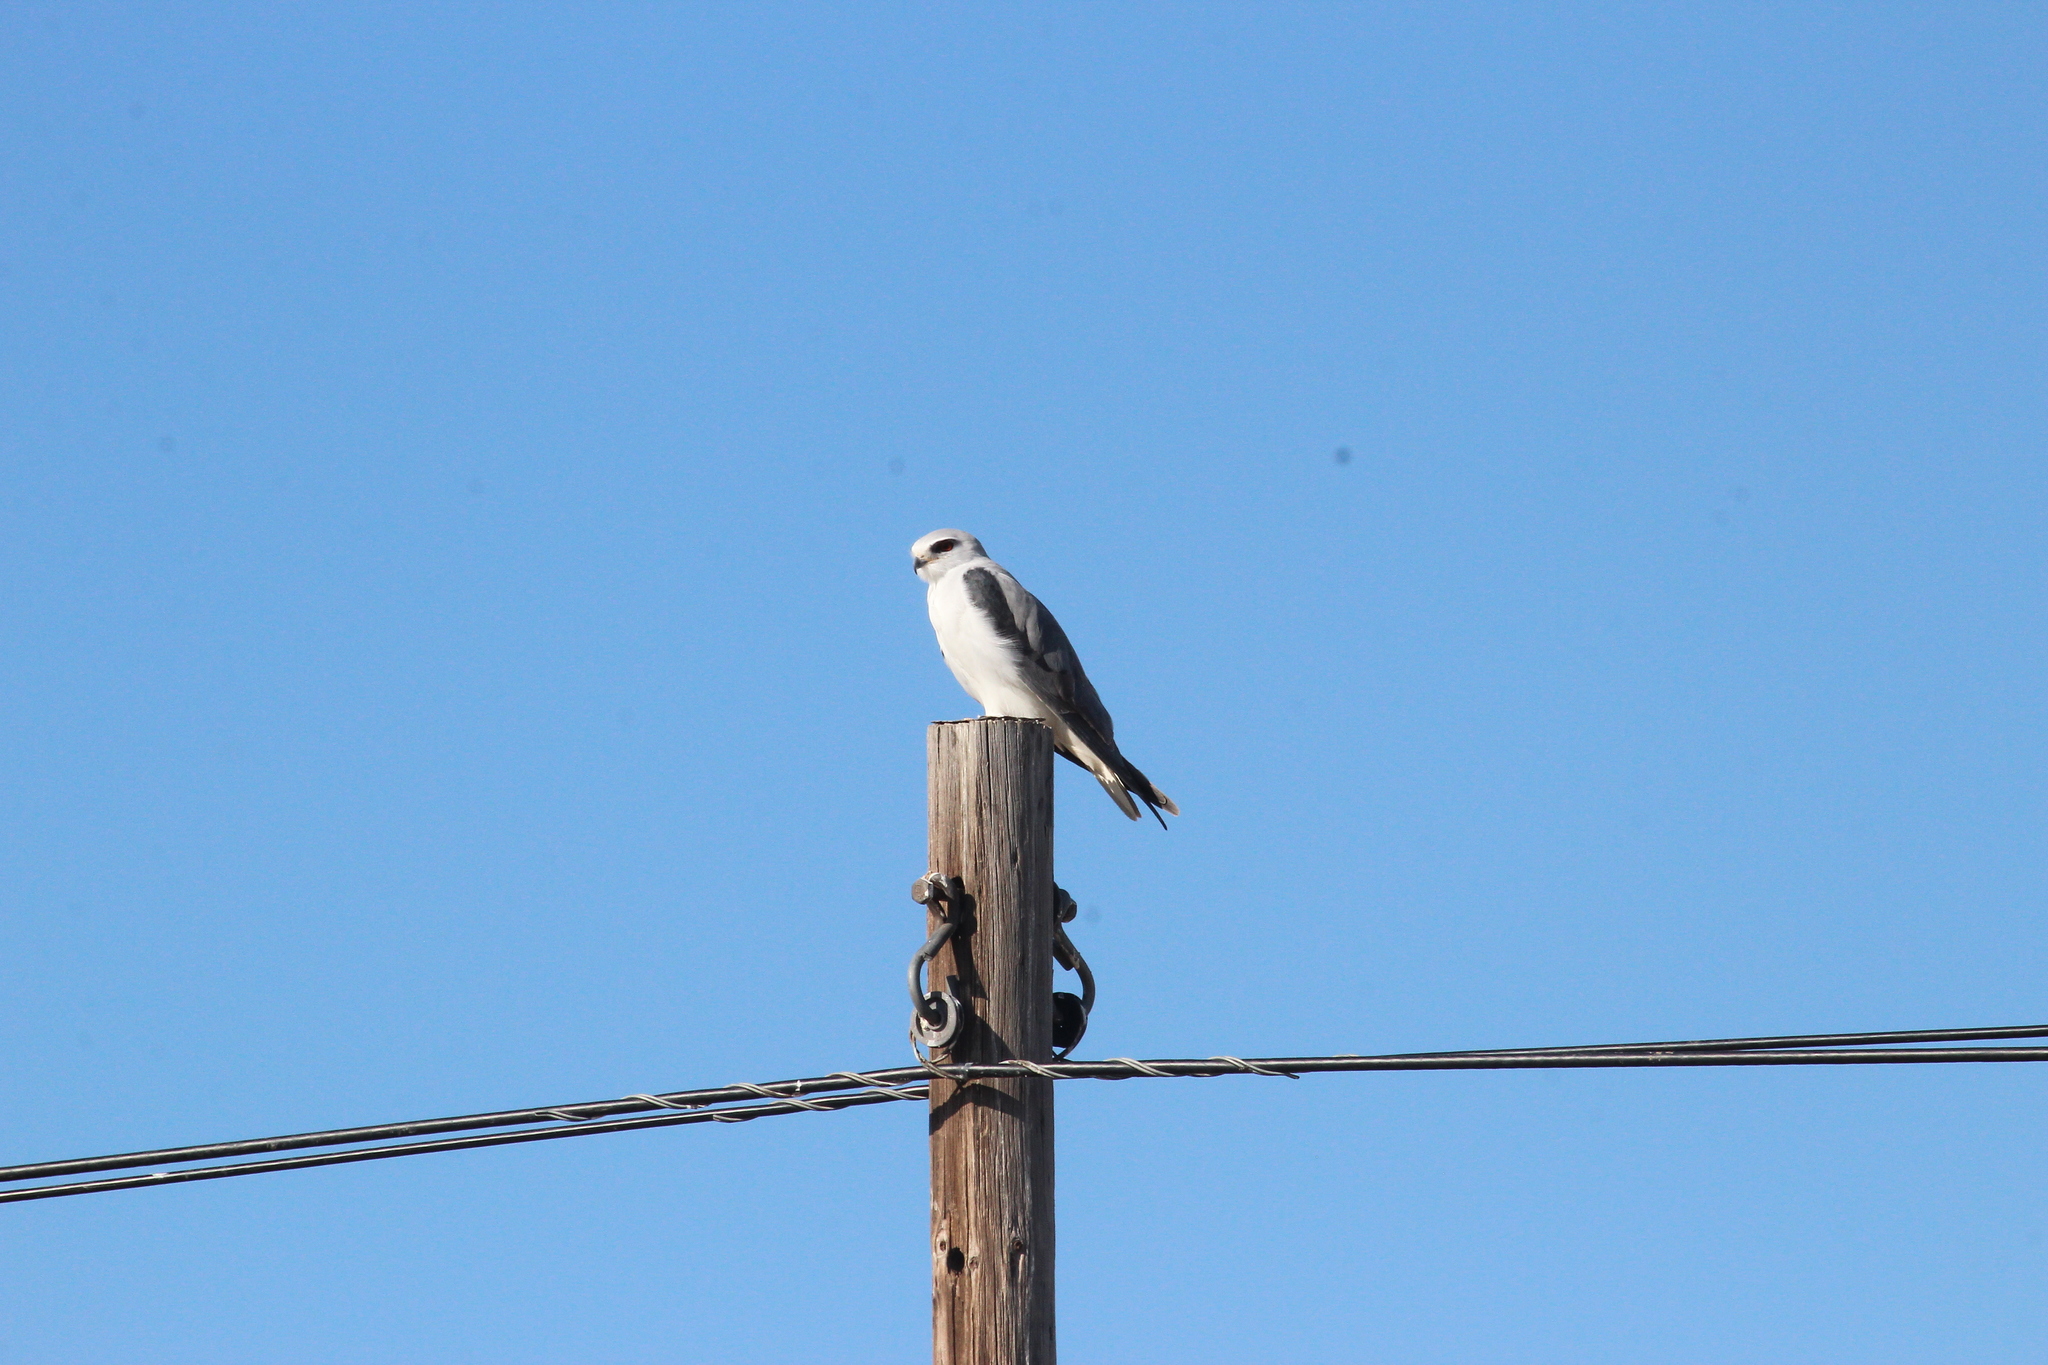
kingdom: Animalia
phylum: Chordata
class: Aves
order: Accipitriformes
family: Accipitridae
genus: Elanus
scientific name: Elanus caeruleus
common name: Black-winged kite
